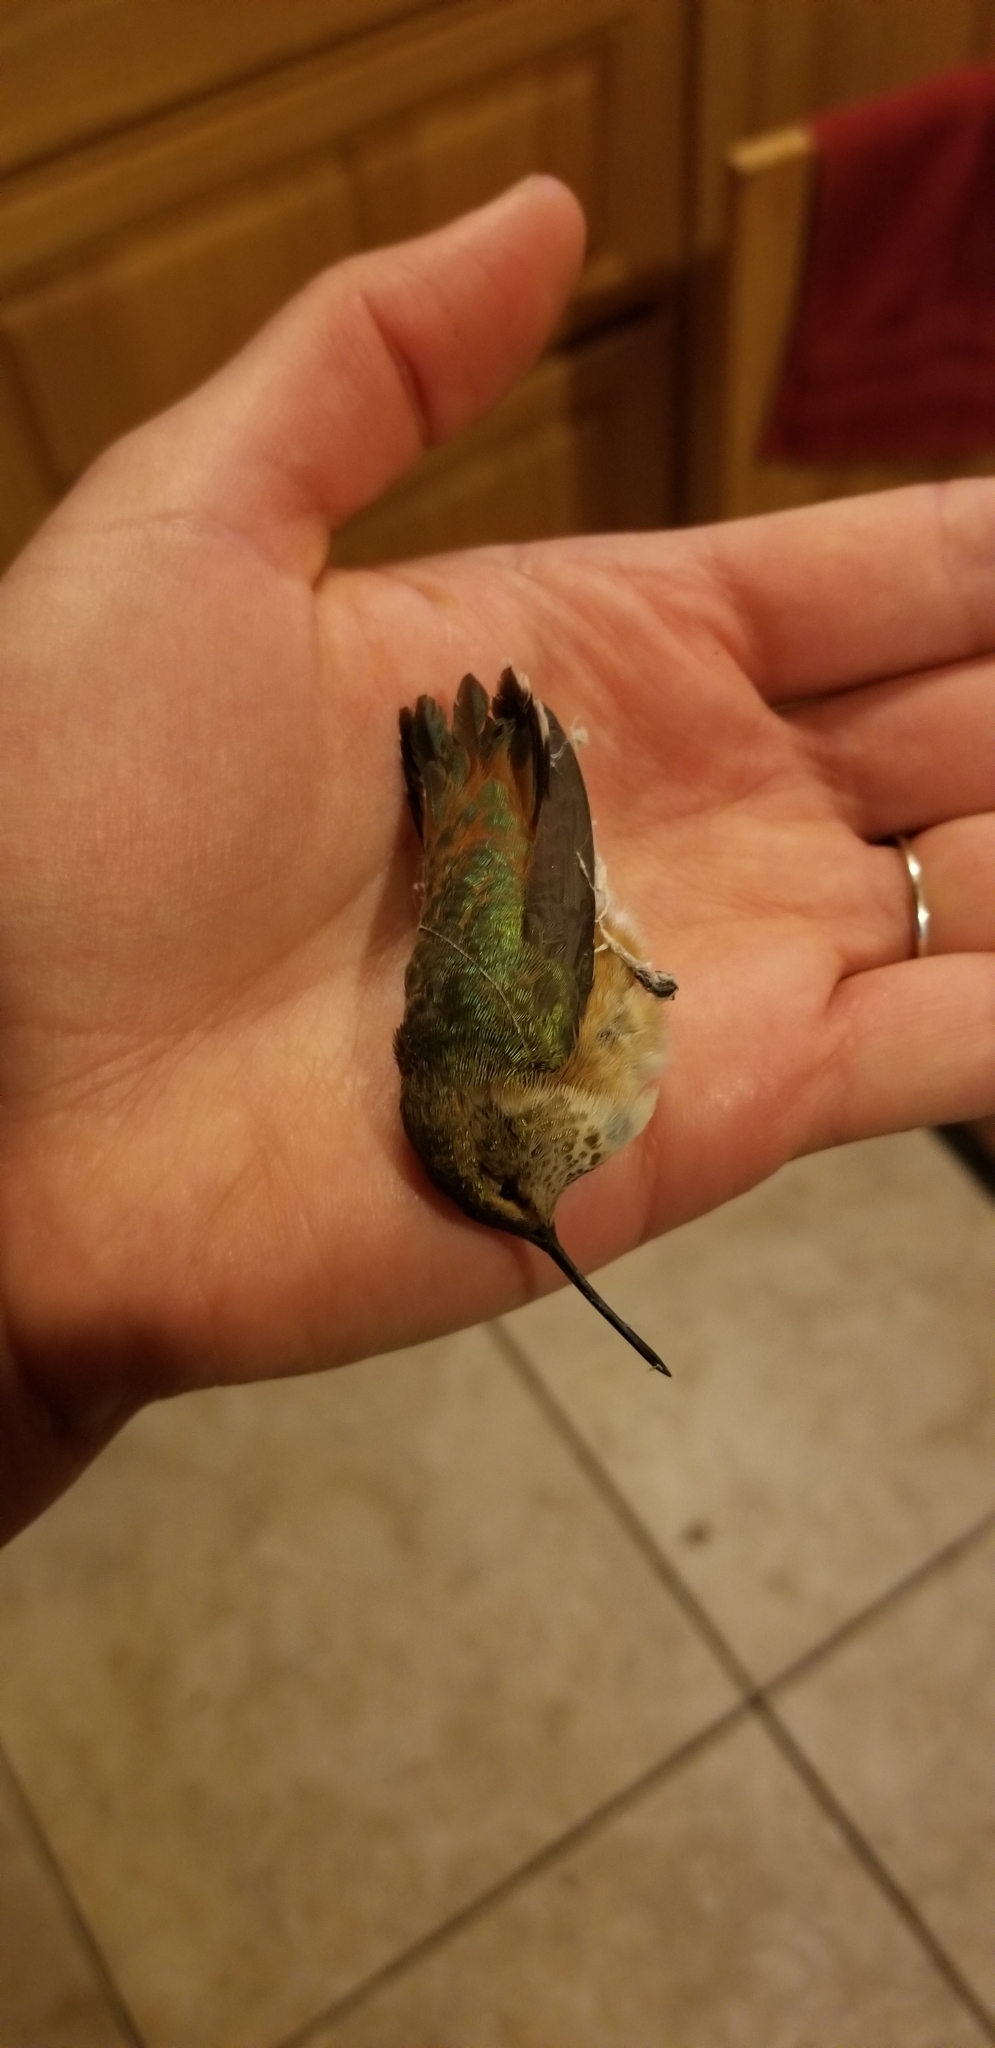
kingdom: Animalia
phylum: Chordata
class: Aves
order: Apodiformes
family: Trochilidae
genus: Selasphorus
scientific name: Selasphorus
